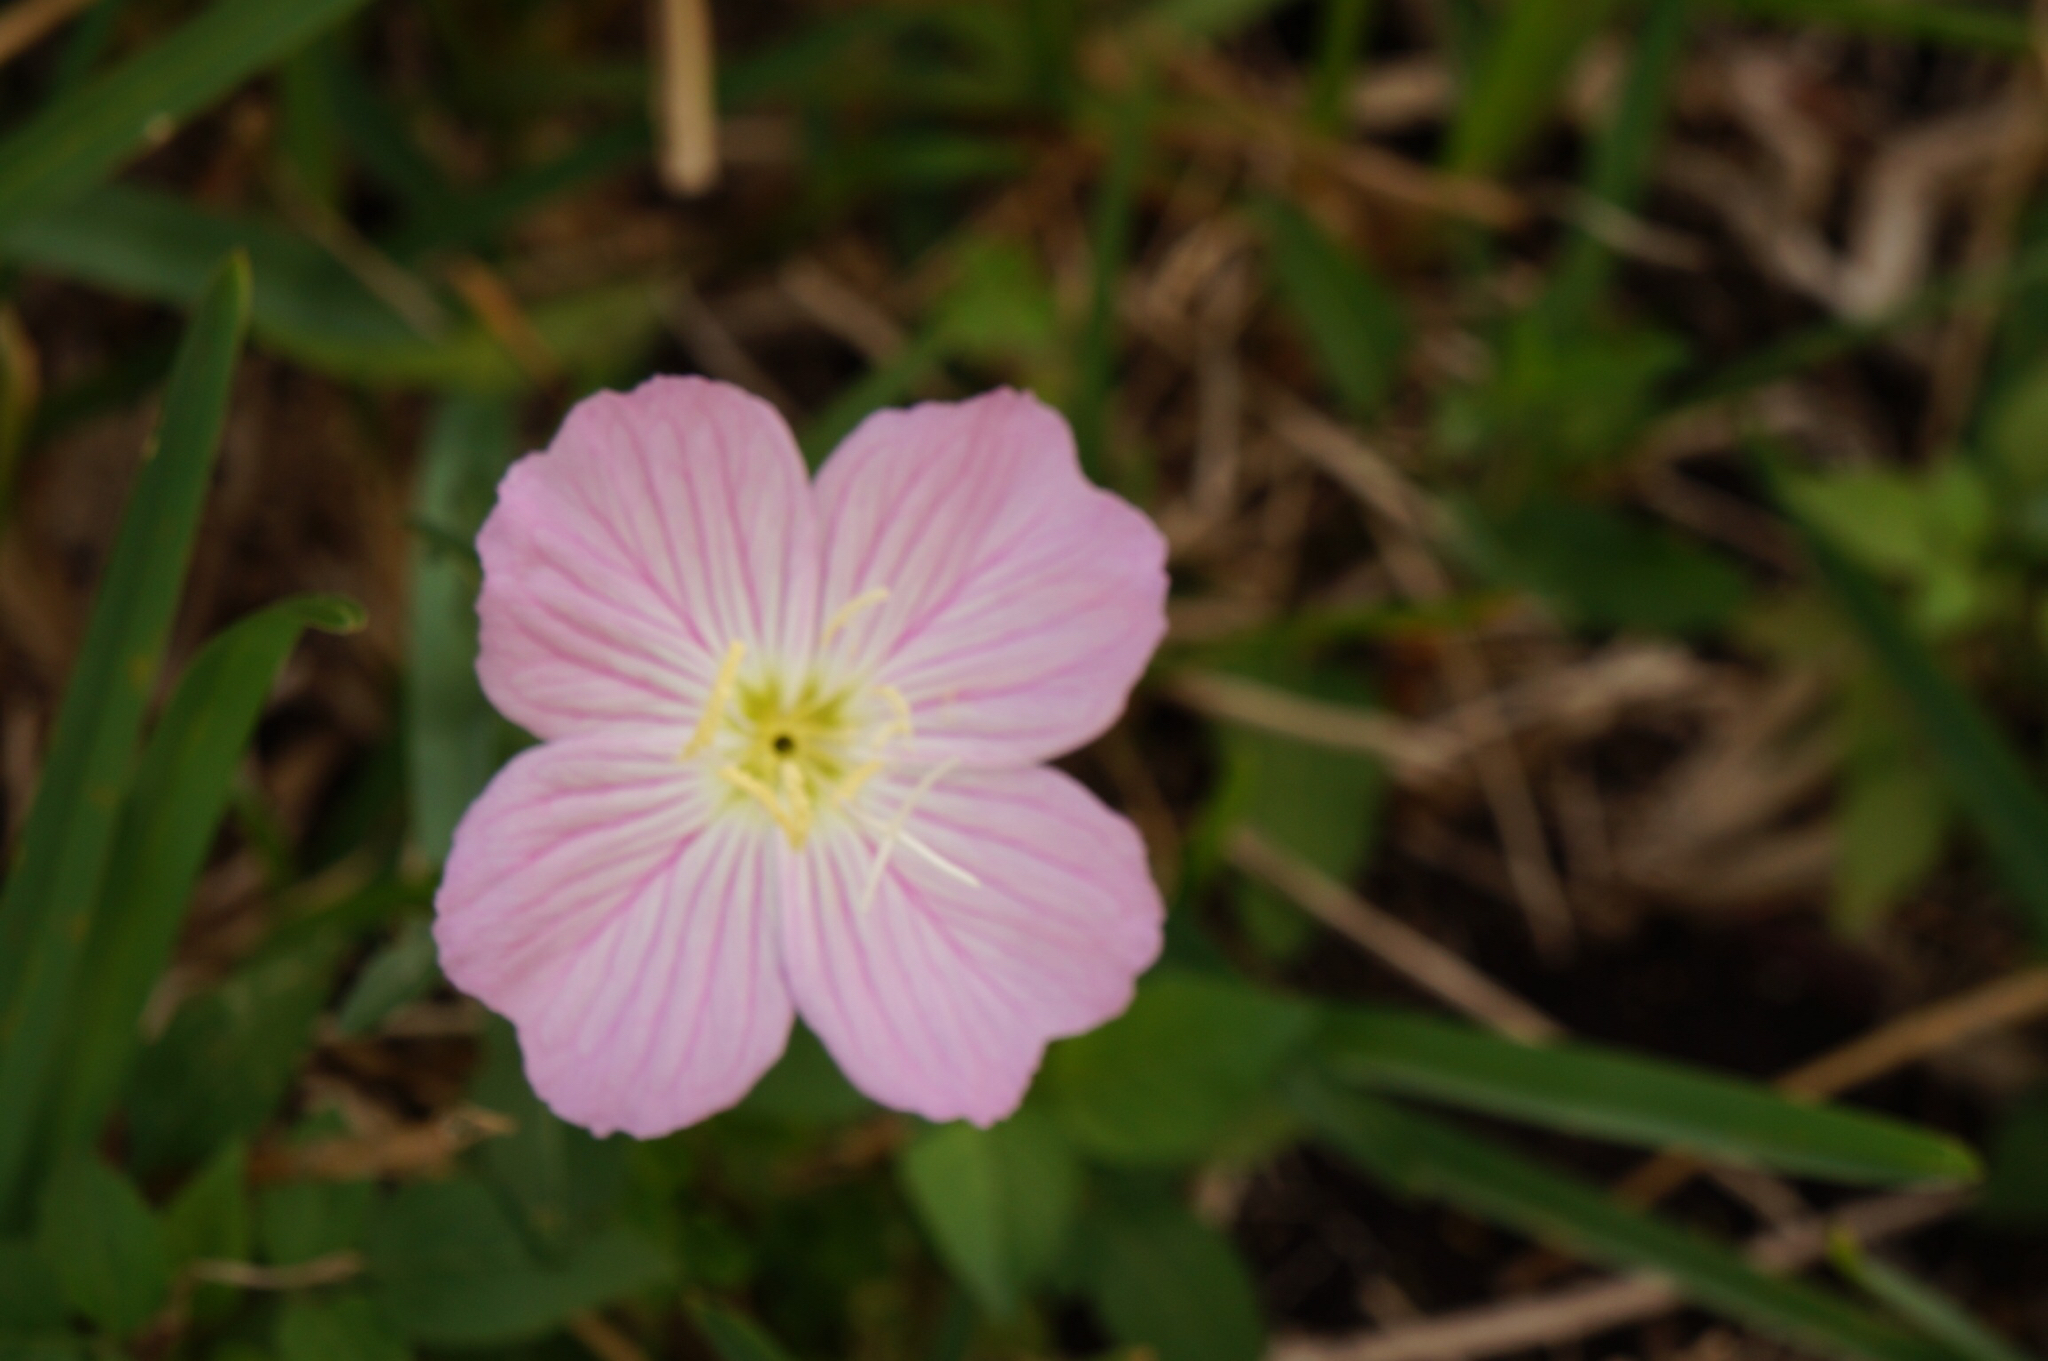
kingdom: Plantae
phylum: Tracheophyta
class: Magnoliopsida
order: Myrtales
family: Onagraceae
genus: Oenothera
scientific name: Oenothera speciosa
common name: White evening-primrose
